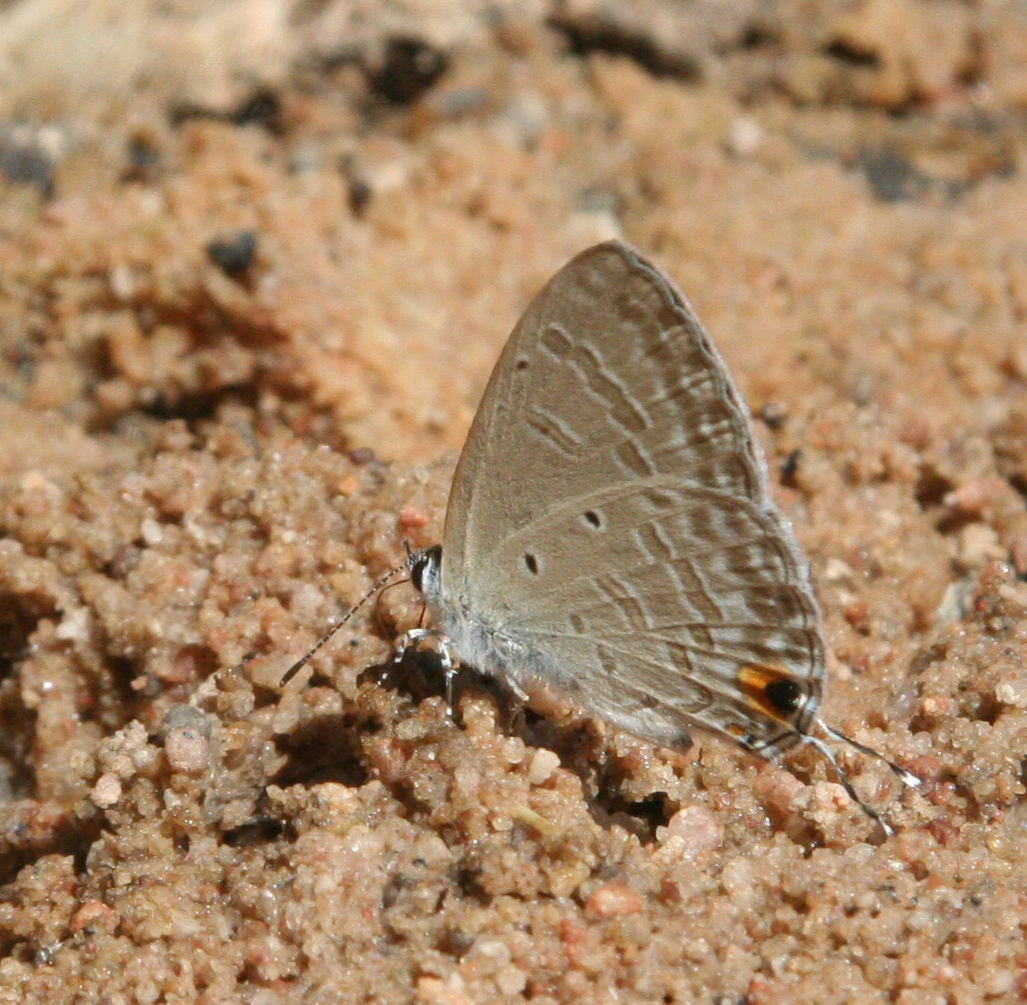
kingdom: Animalia
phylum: Arthropoda
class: Insecta
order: Lepidoptera
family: Lycaenidae
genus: Catochrysops
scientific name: Catochrysops strabo
